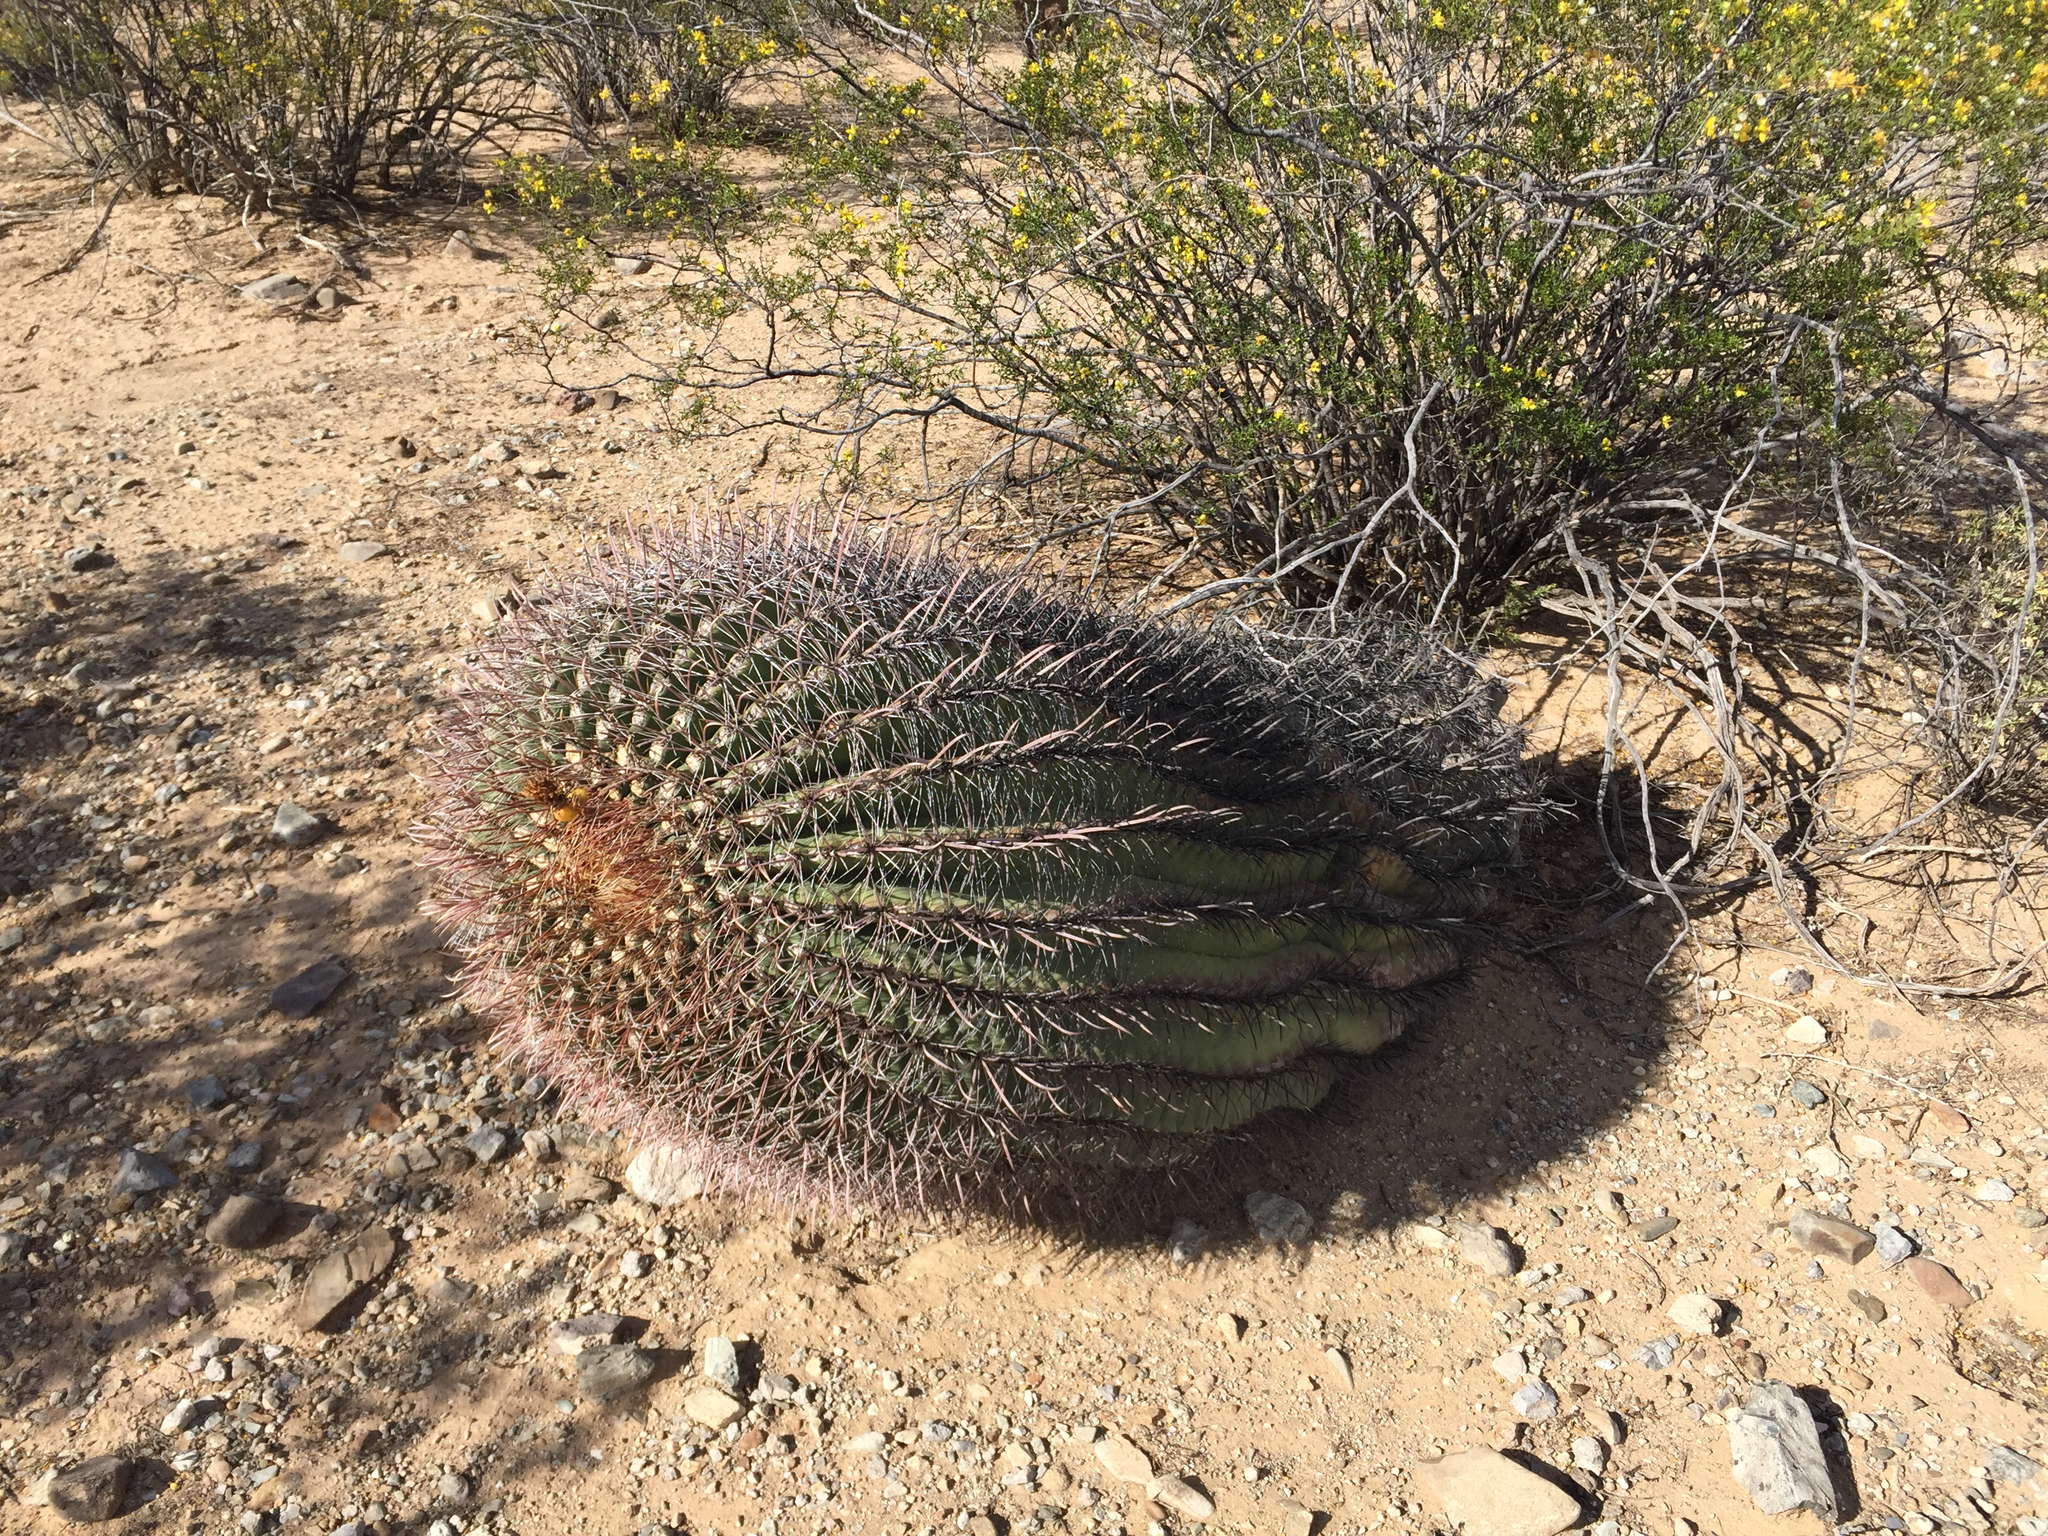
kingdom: Plantae
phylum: Tracheophyta
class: Magnoliopsida
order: Caryophyllales
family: Cactaceae
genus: Ferocactus
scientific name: Ferocactus wislizeni
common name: Candy barrel cactus
